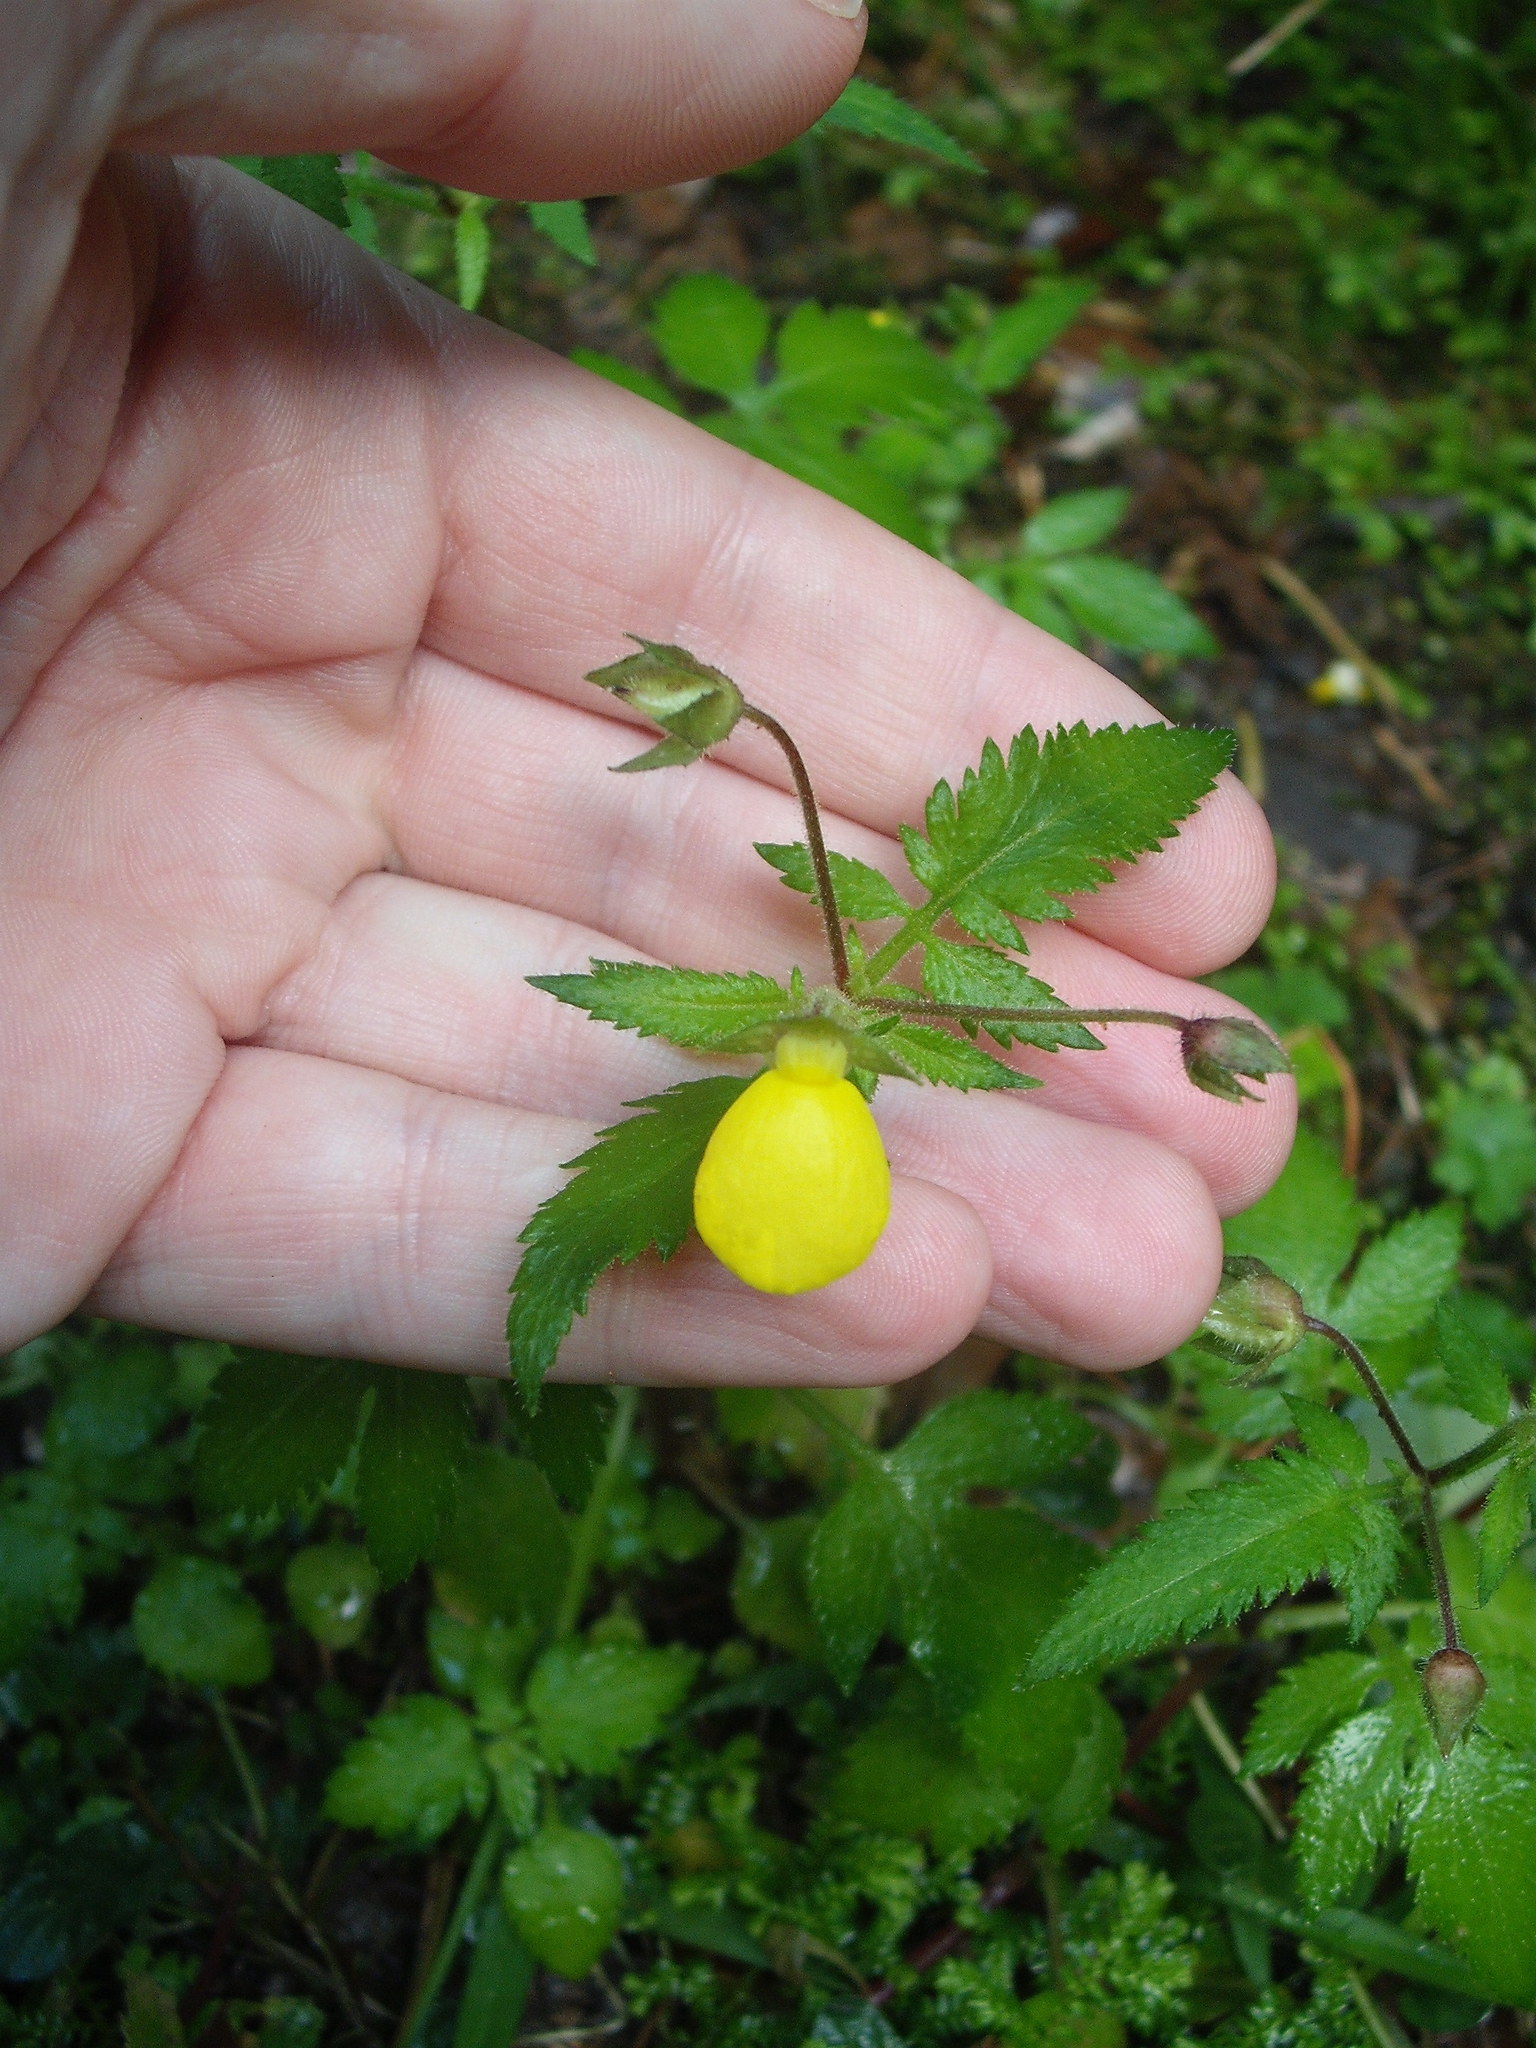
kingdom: Plantae
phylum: Tracheophyta
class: Magnoliopsida
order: Lamiales
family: Calceolariaceae
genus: Calceolaria
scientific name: Calceolaria tripartita
